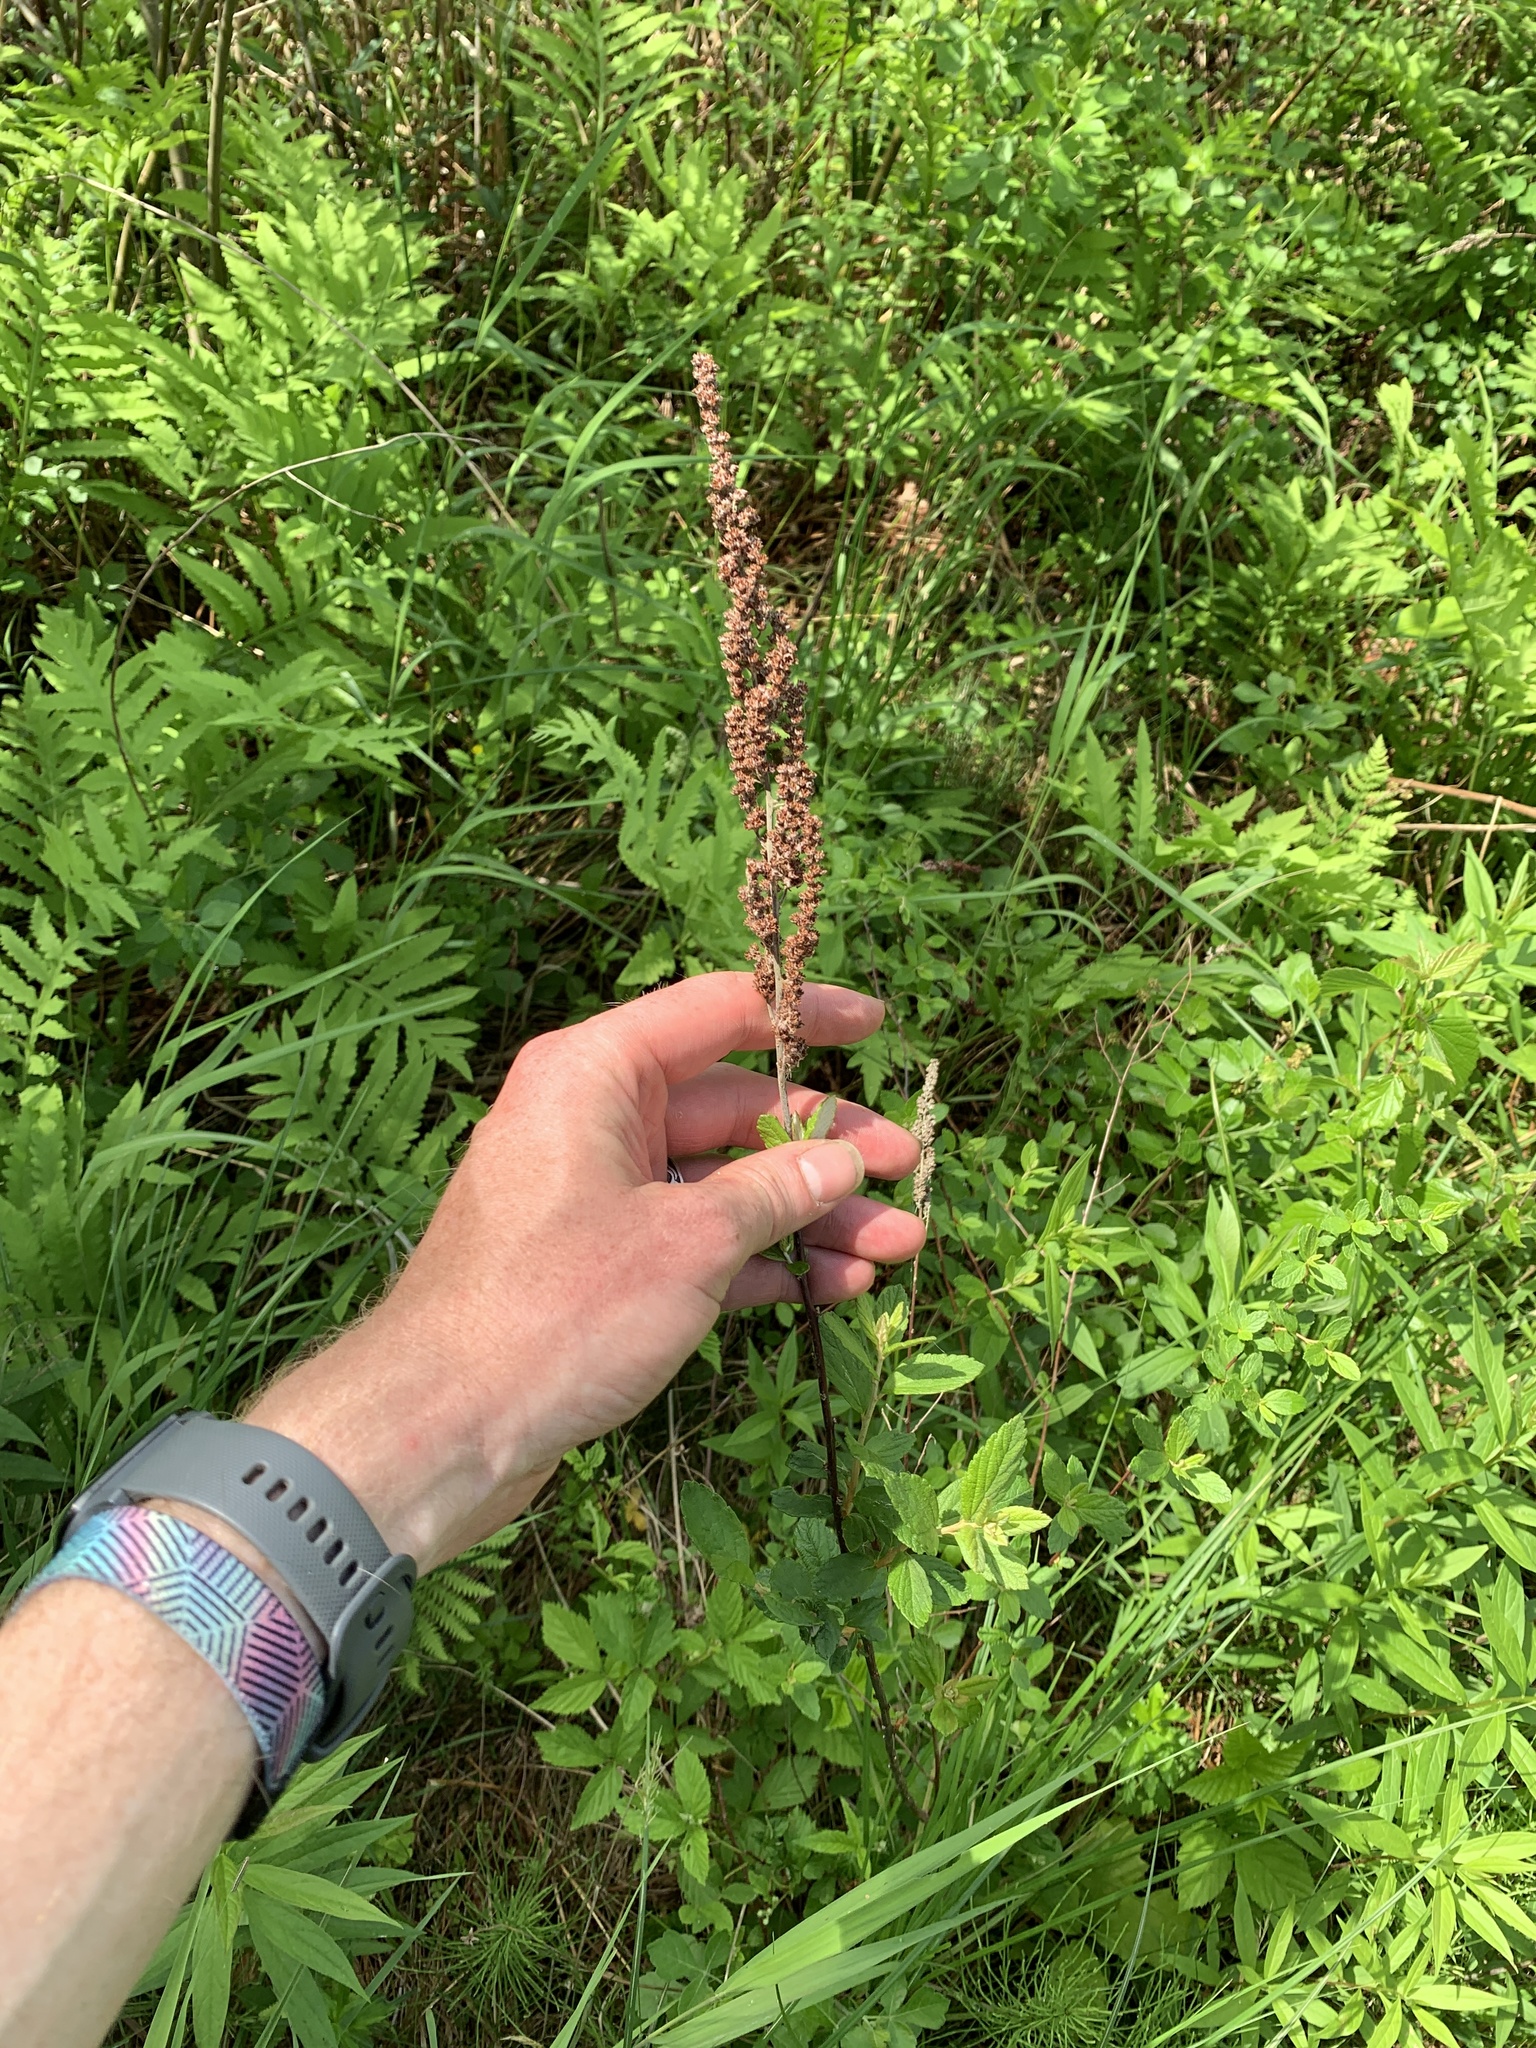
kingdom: Plantae
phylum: Tracheophyta
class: Magnoliopsida
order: Rosales
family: Rosaceae
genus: Spiraea
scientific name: Spiraea tomentosa
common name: Hardhack
